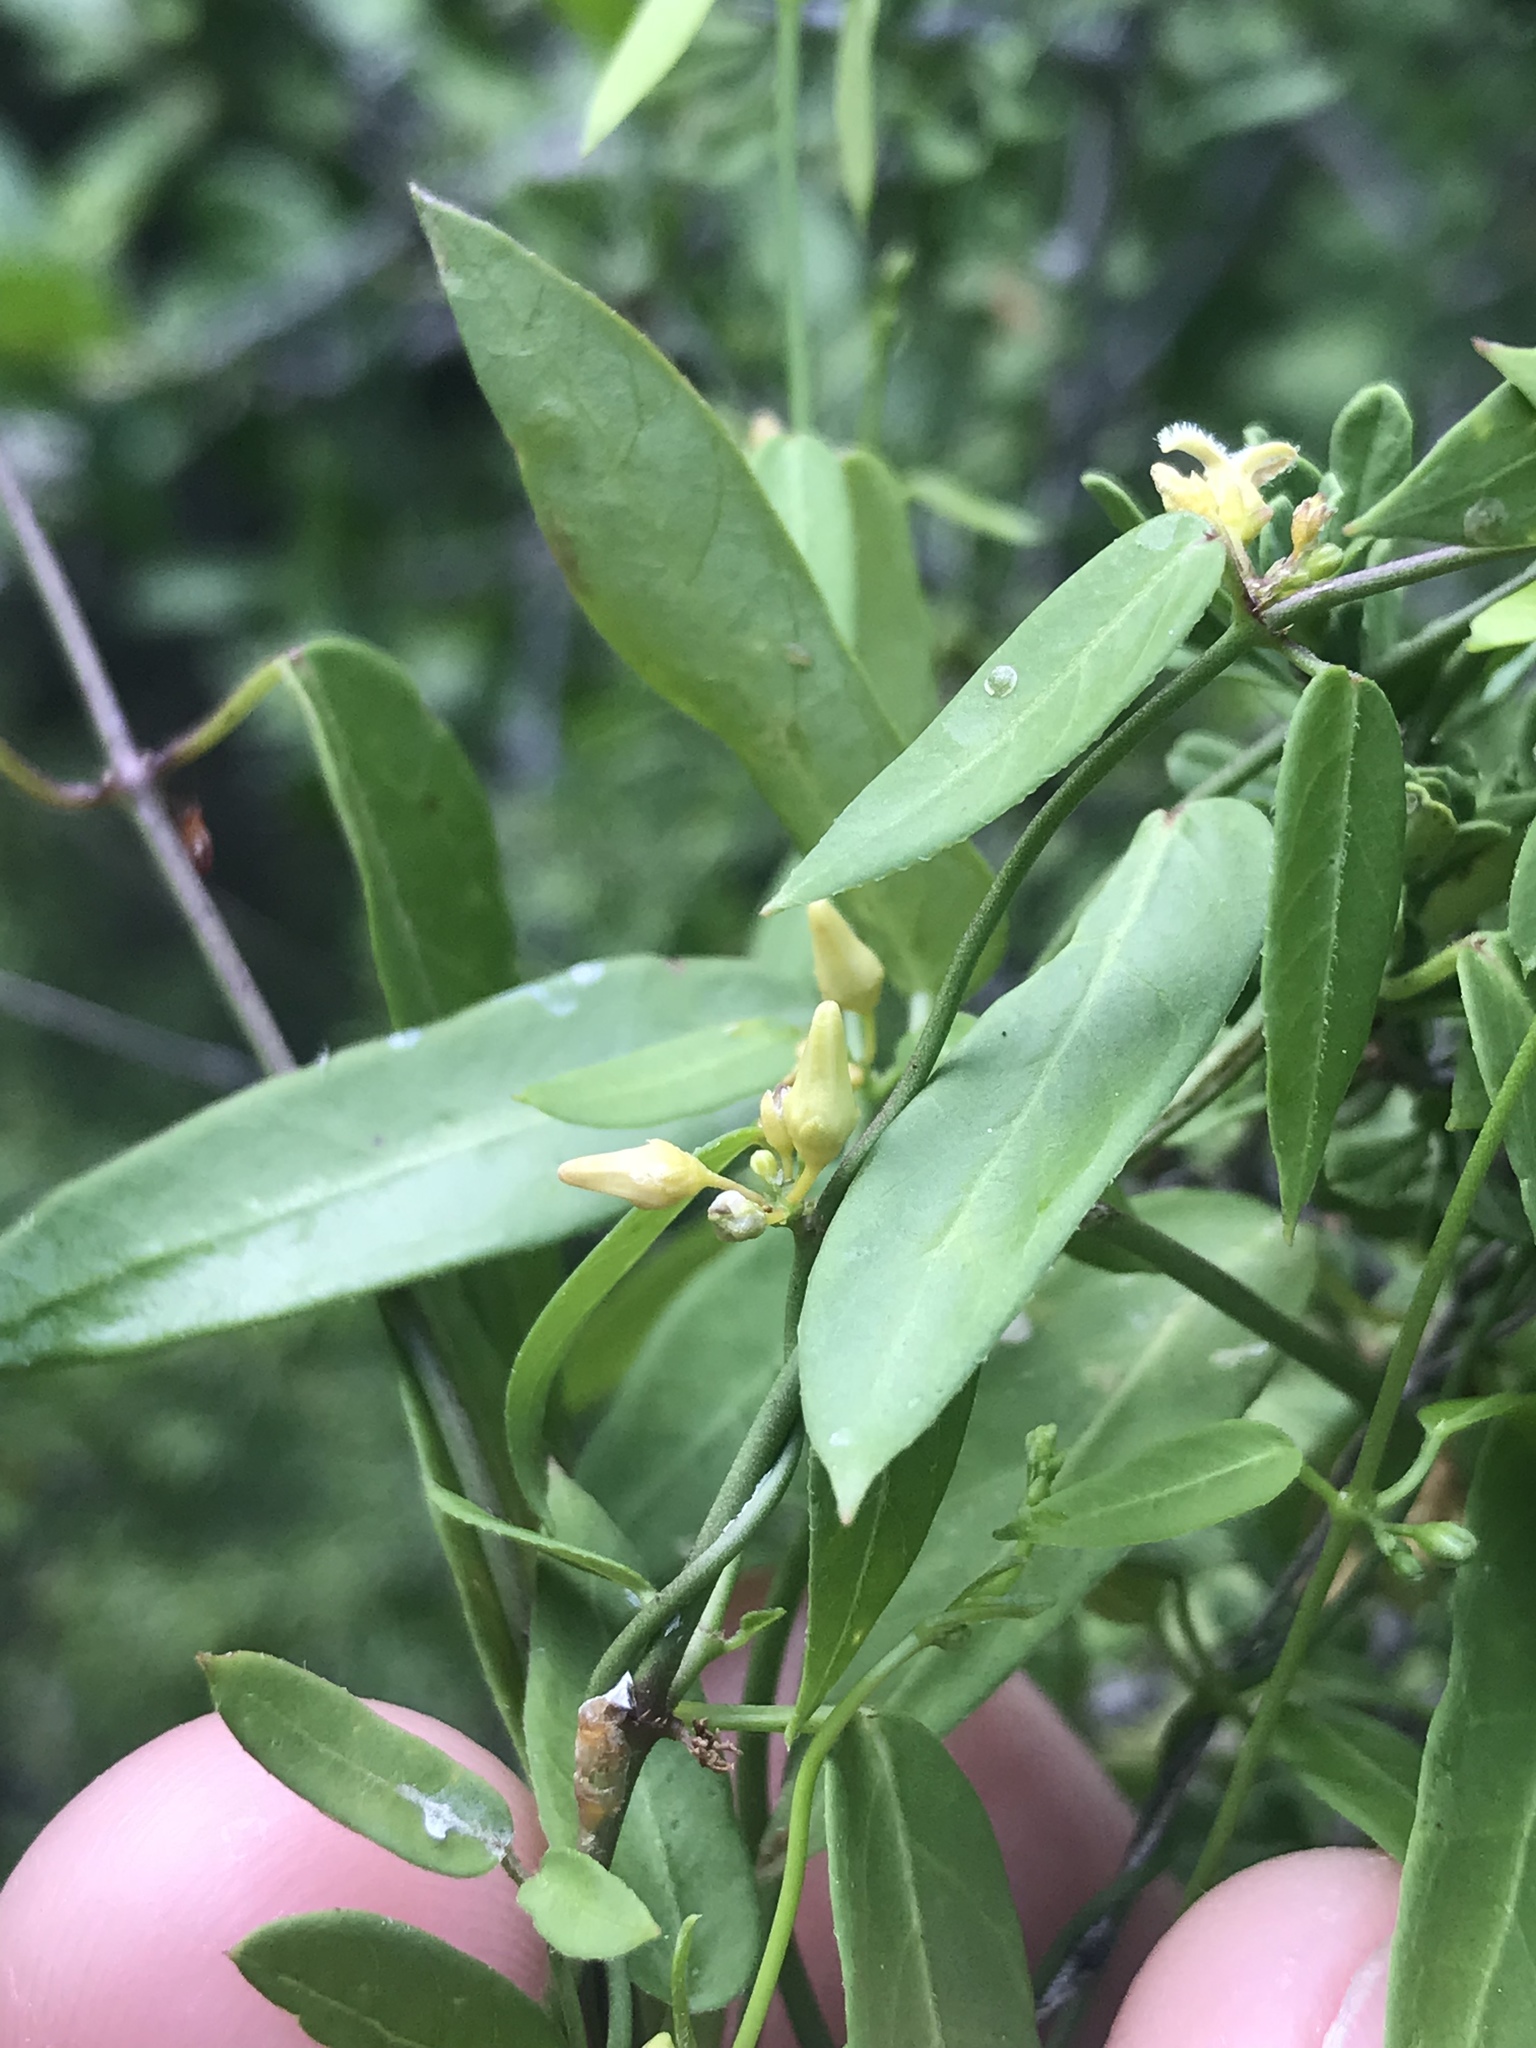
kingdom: Plantae
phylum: Tracheophyta
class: Magnoliopsida
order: Gentianales
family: Apocynaceae
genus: Metastelma
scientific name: Metastelma barbigerum
